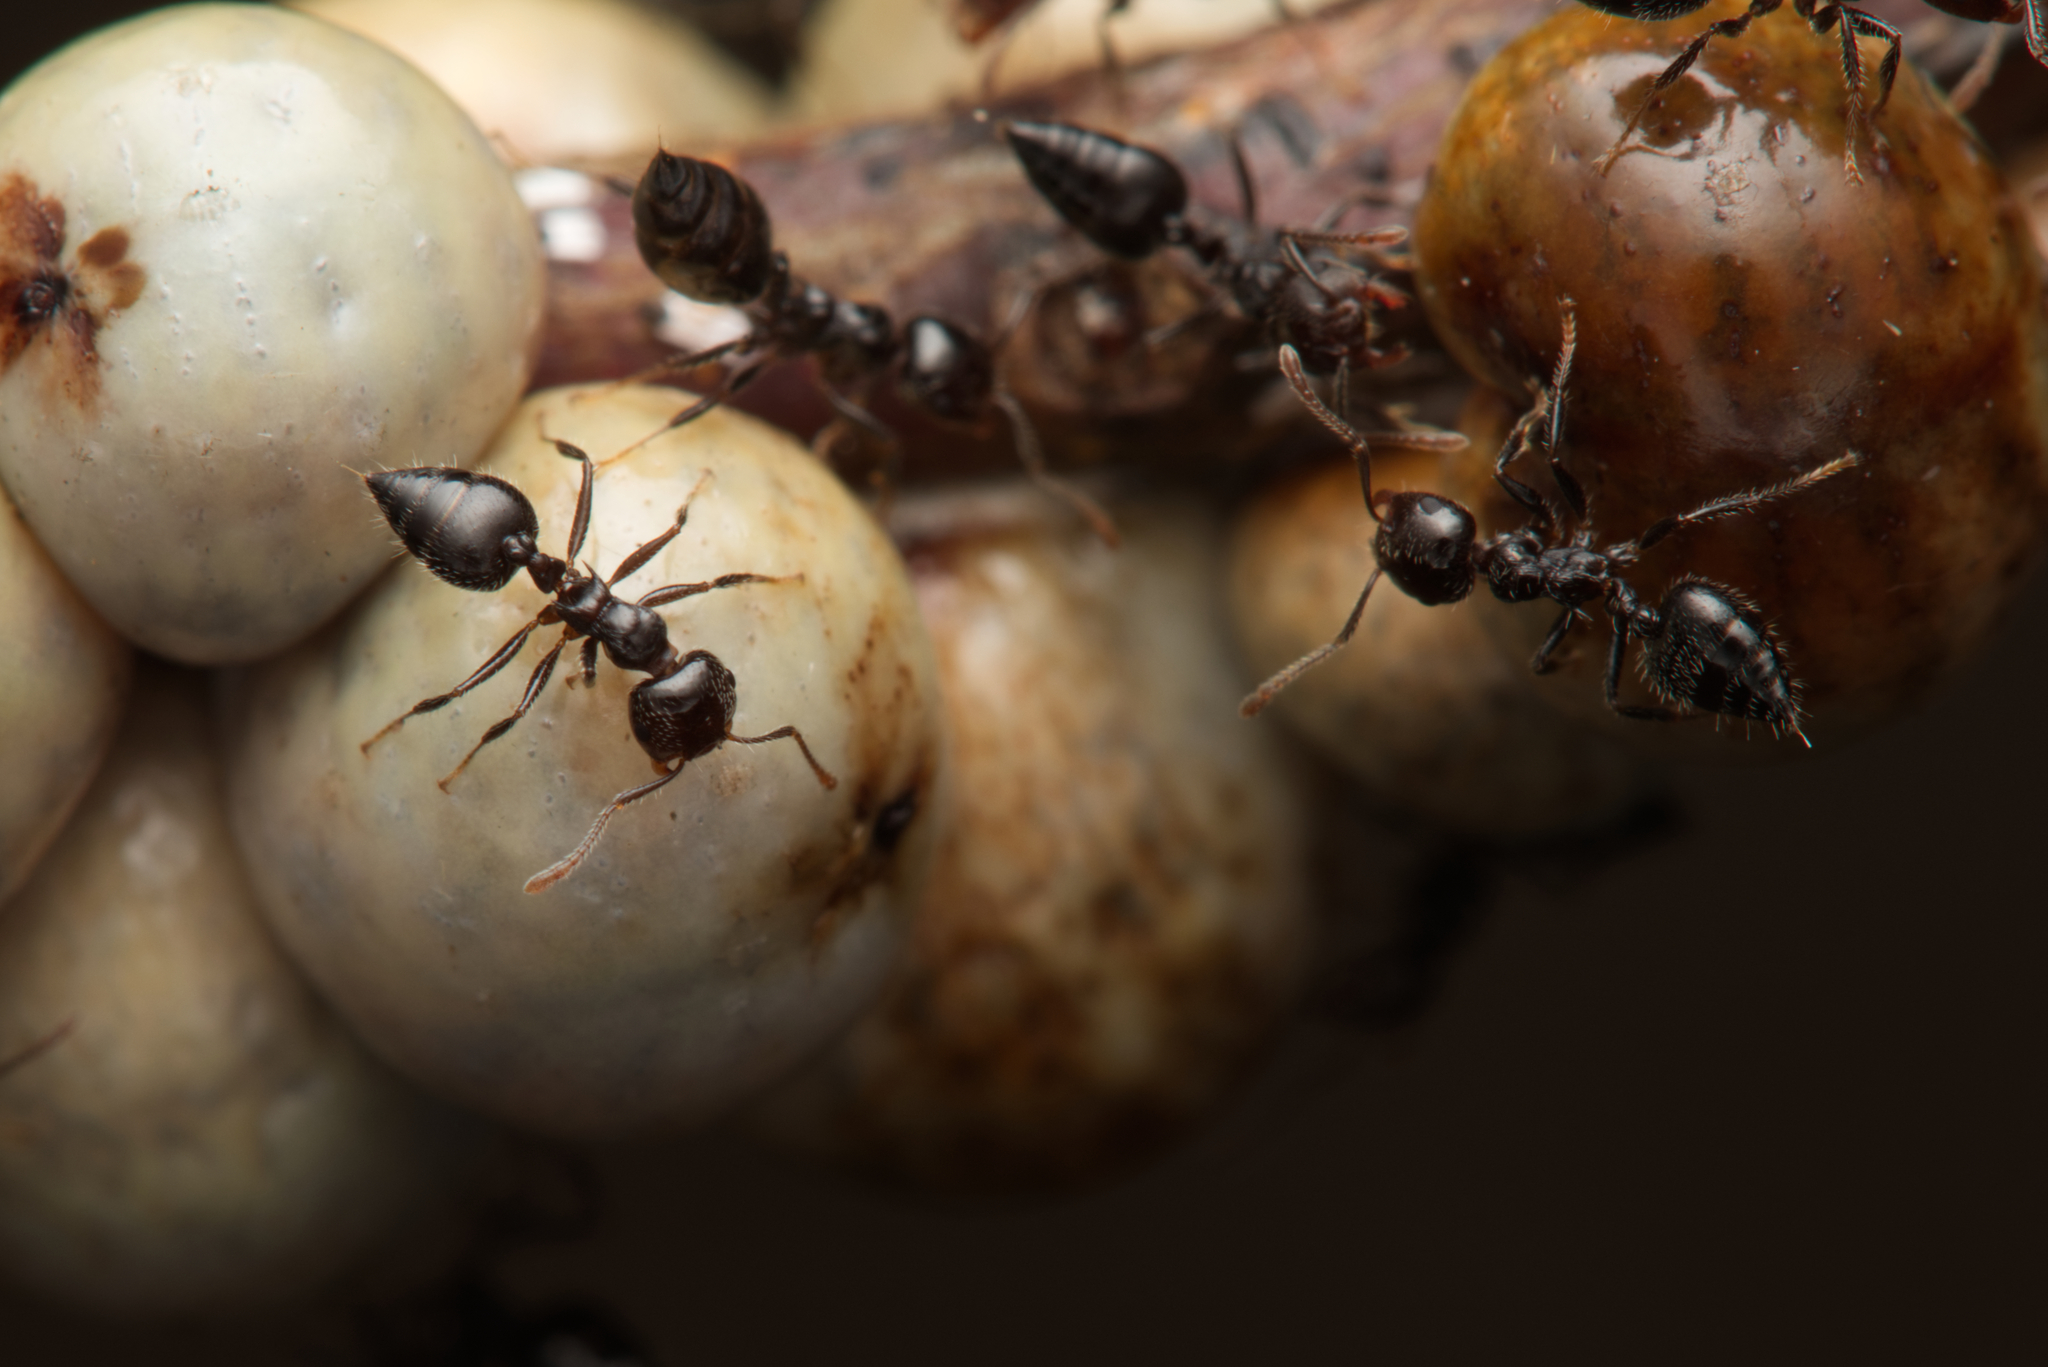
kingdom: Animalia
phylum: Arthropoda
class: Insecta
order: Hemiptera
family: Coccidae
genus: Cryptes
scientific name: Cryptes baccatus
